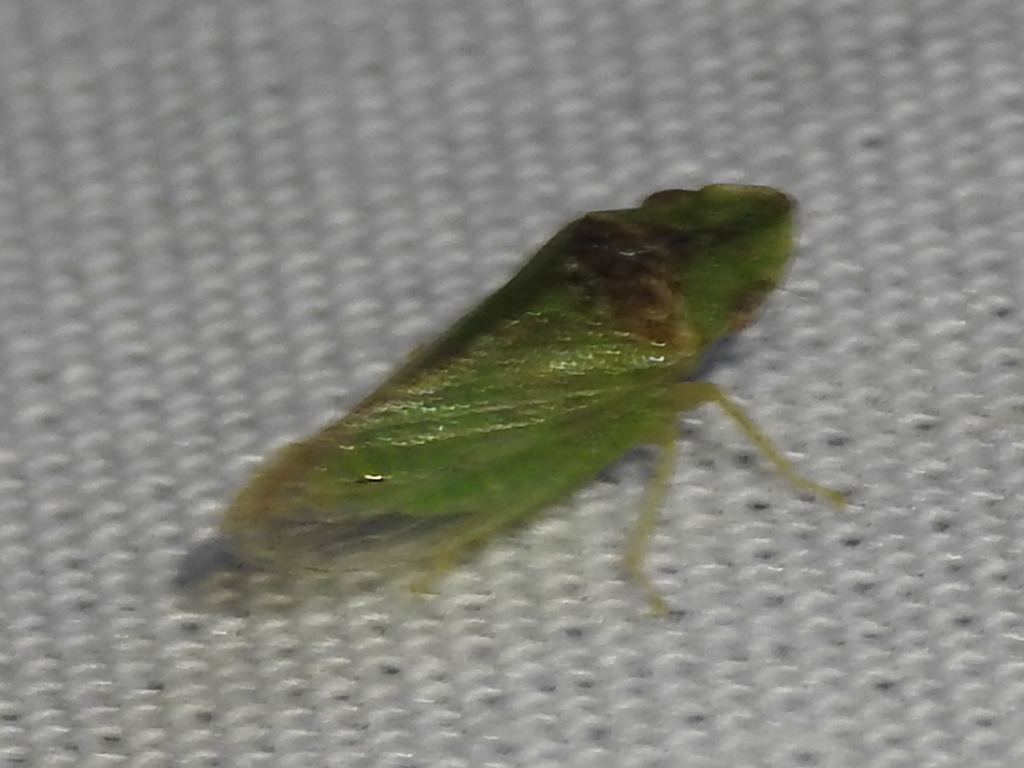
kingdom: Animalia
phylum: Arthropoda
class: Insecta
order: Hemiptera
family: Cicadellidae
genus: Xerophloea
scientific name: Xerophloea viridis
